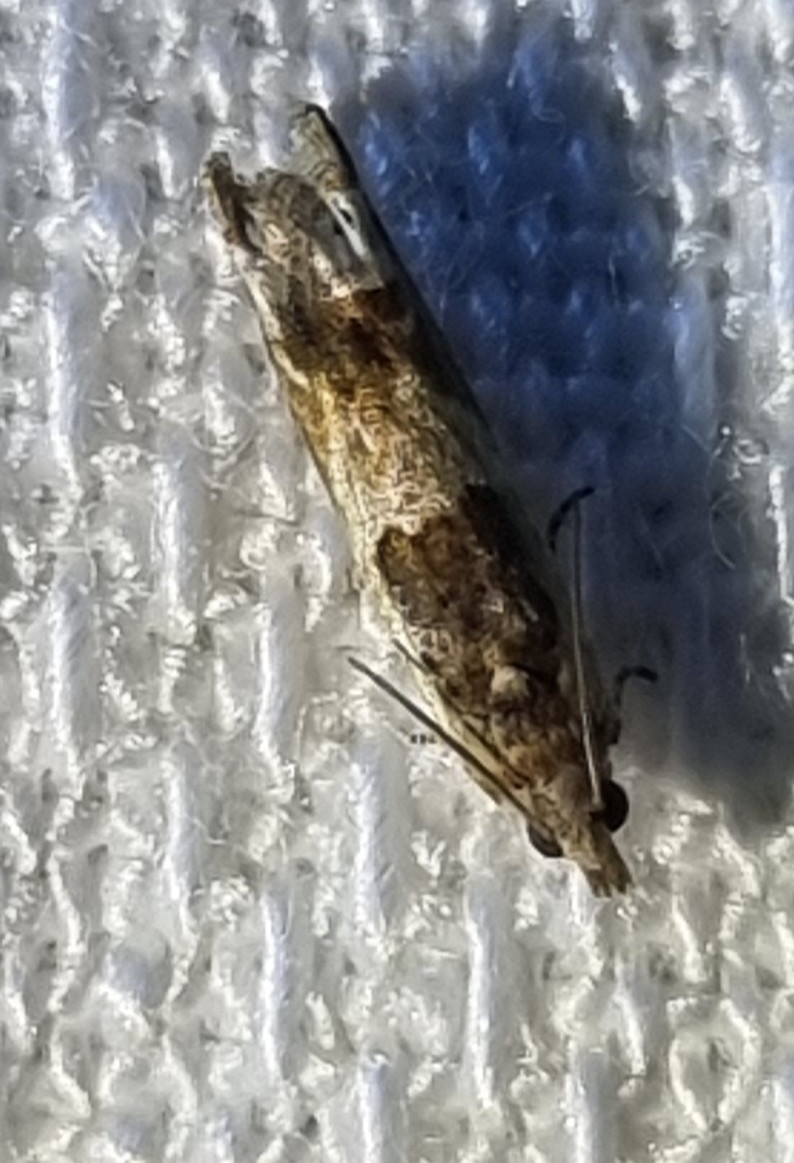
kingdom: Animalia
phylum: Arthropoda
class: Insecta
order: Lepidoptera
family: Tortricidae
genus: Crocidosema
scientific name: Crocidosema plebejana
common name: Southern bell
